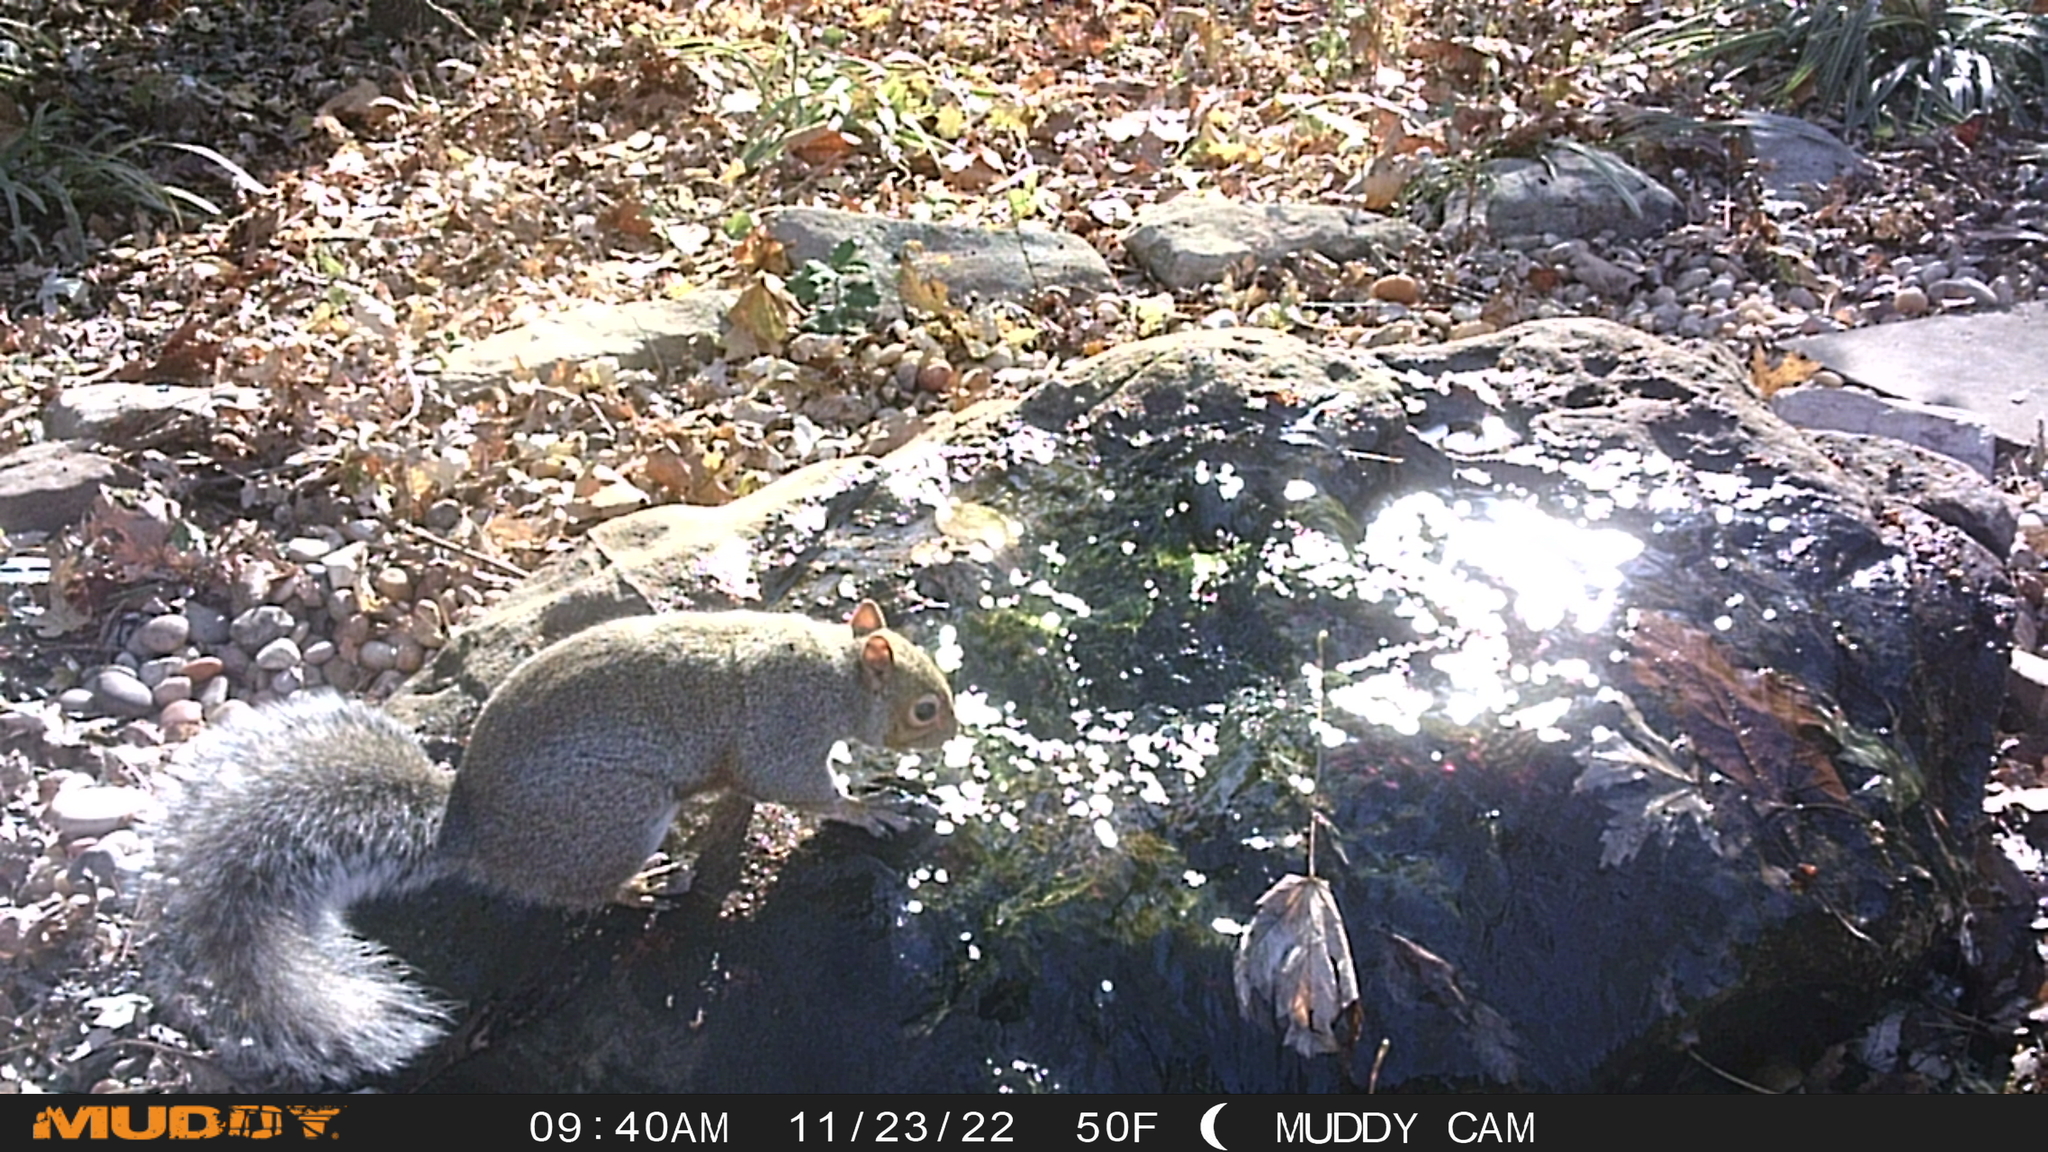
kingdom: Animalia
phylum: Chordata
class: Mammalia
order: Rodentia
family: Sciuridae
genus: Sciurus
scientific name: Sciurus carolinensis
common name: Eastern gray squirrel
